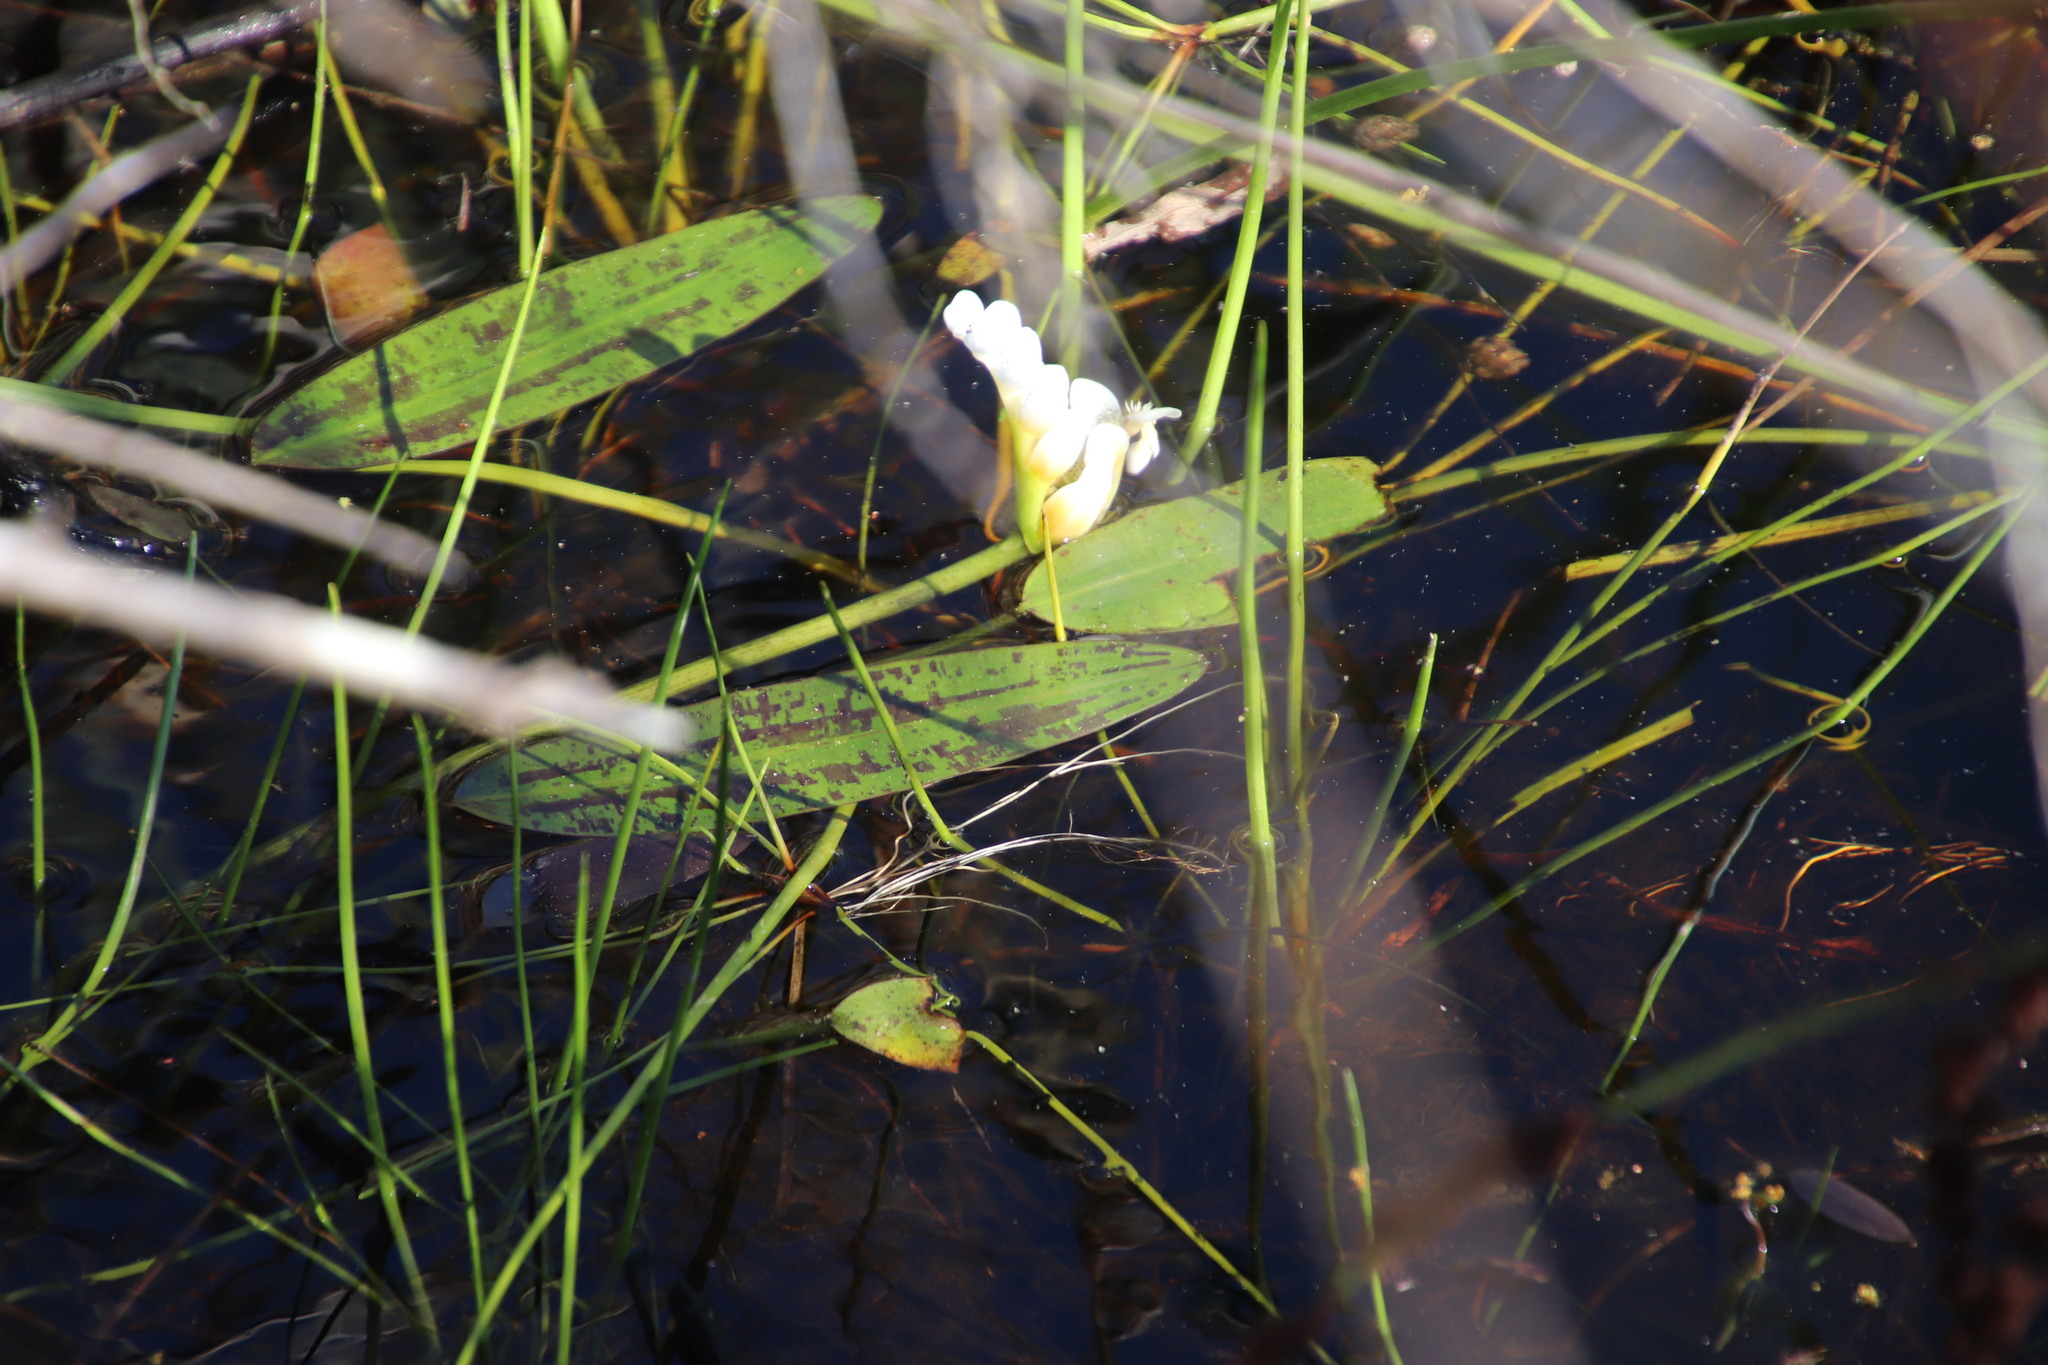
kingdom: Plantae
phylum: Tracheophyta
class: Liliopsida
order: Alismatales
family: Aponogetonaceae
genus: Aponogeton
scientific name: Aponogeton distachyos
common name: Cape-pondweed
